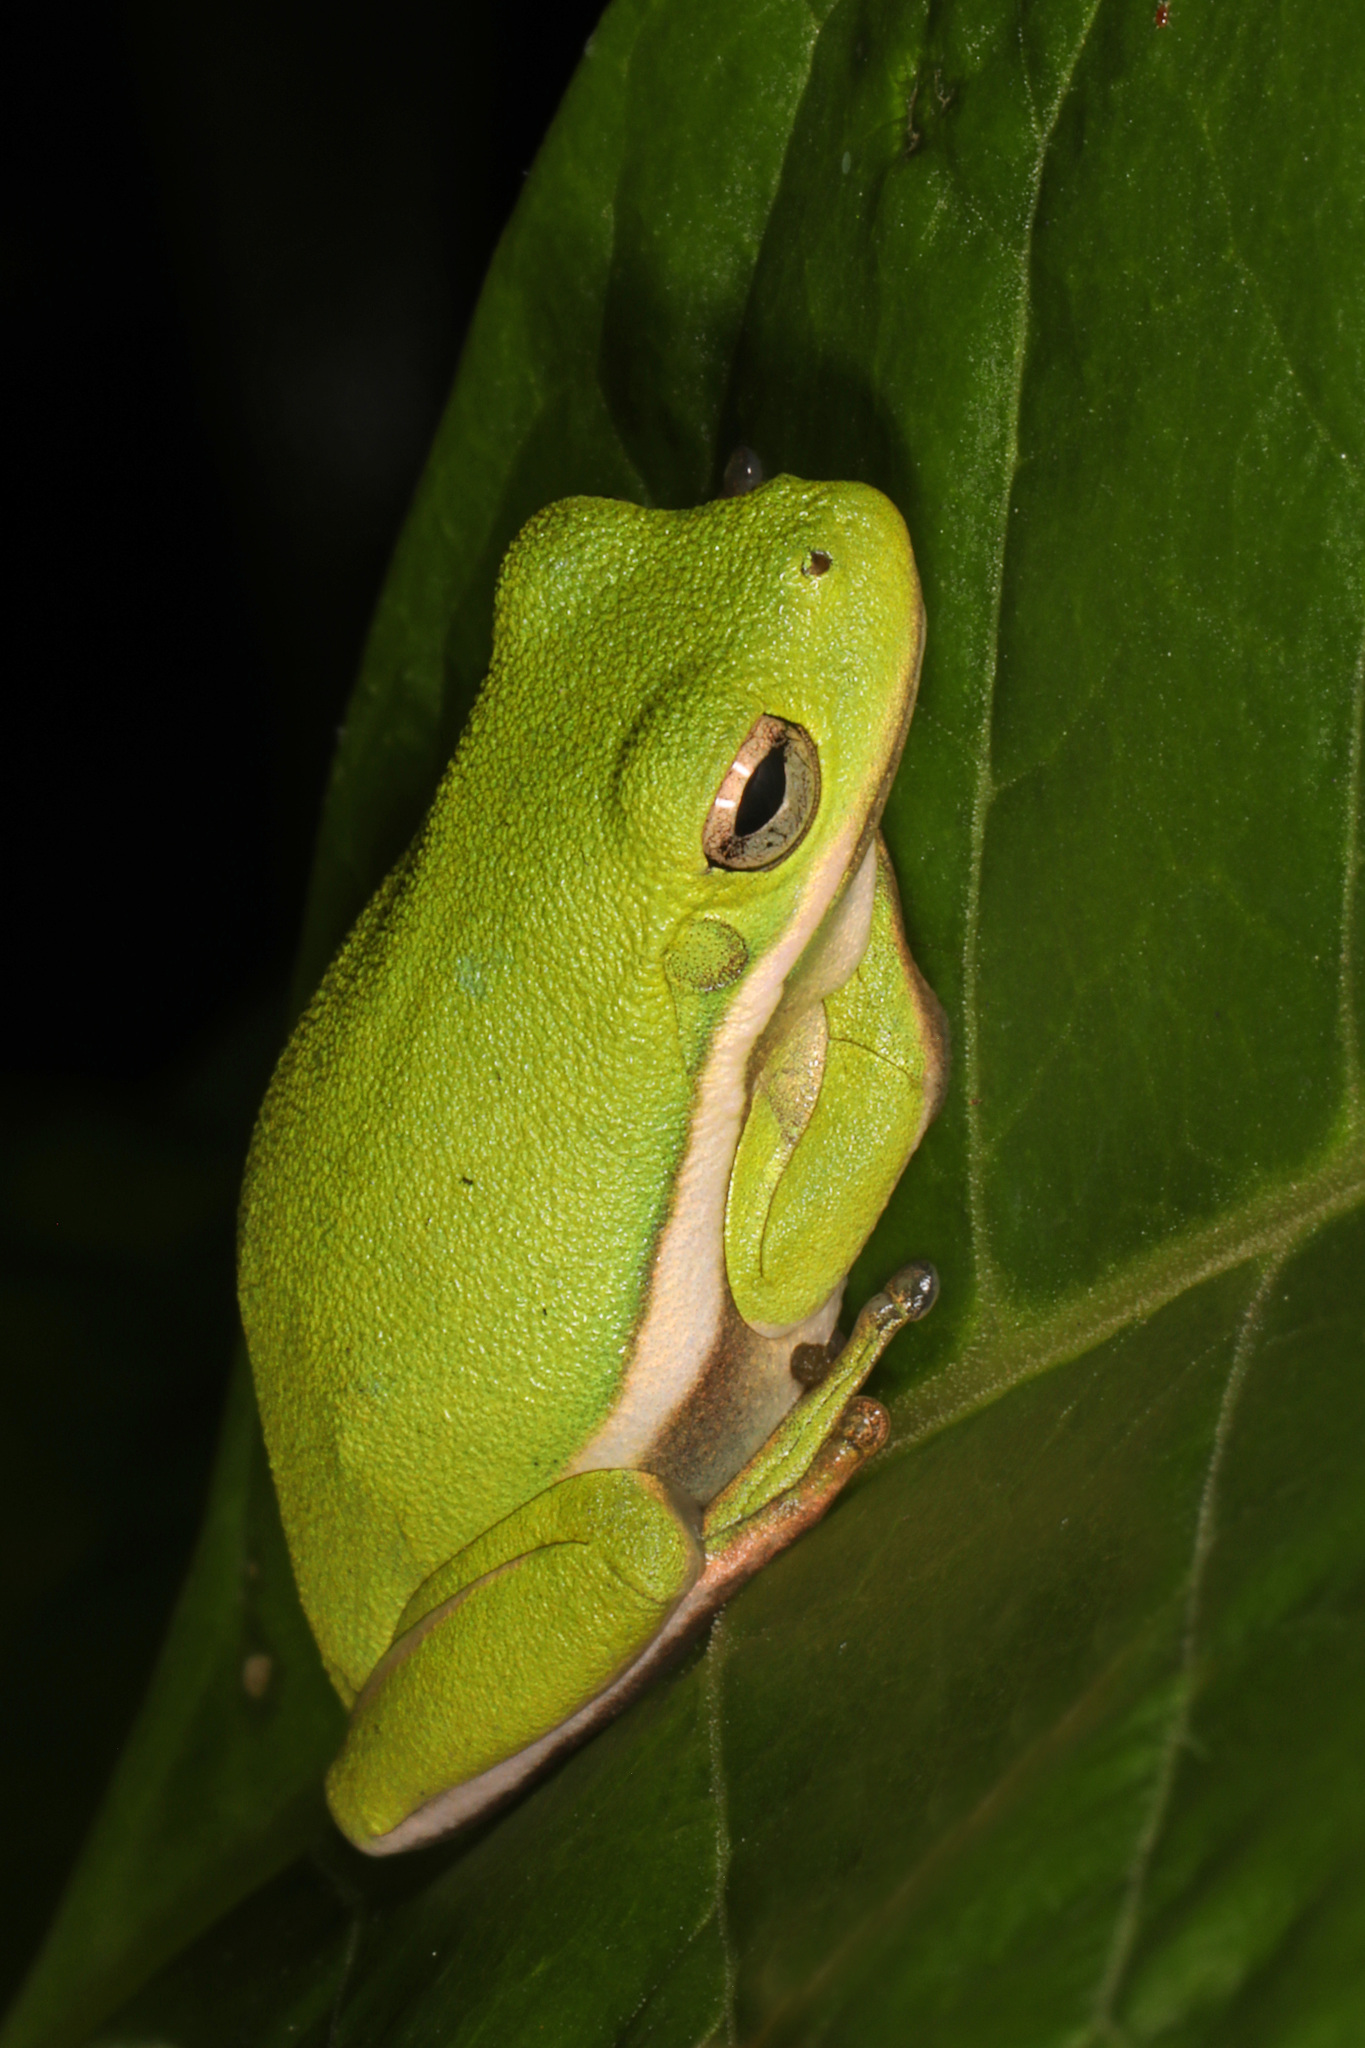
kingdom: Animalia
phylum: Chordata
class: Amphibia
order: Anura
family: Hylidae
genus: Dryophytes
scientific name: Dryophytes cinereus
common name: Green treefrog
